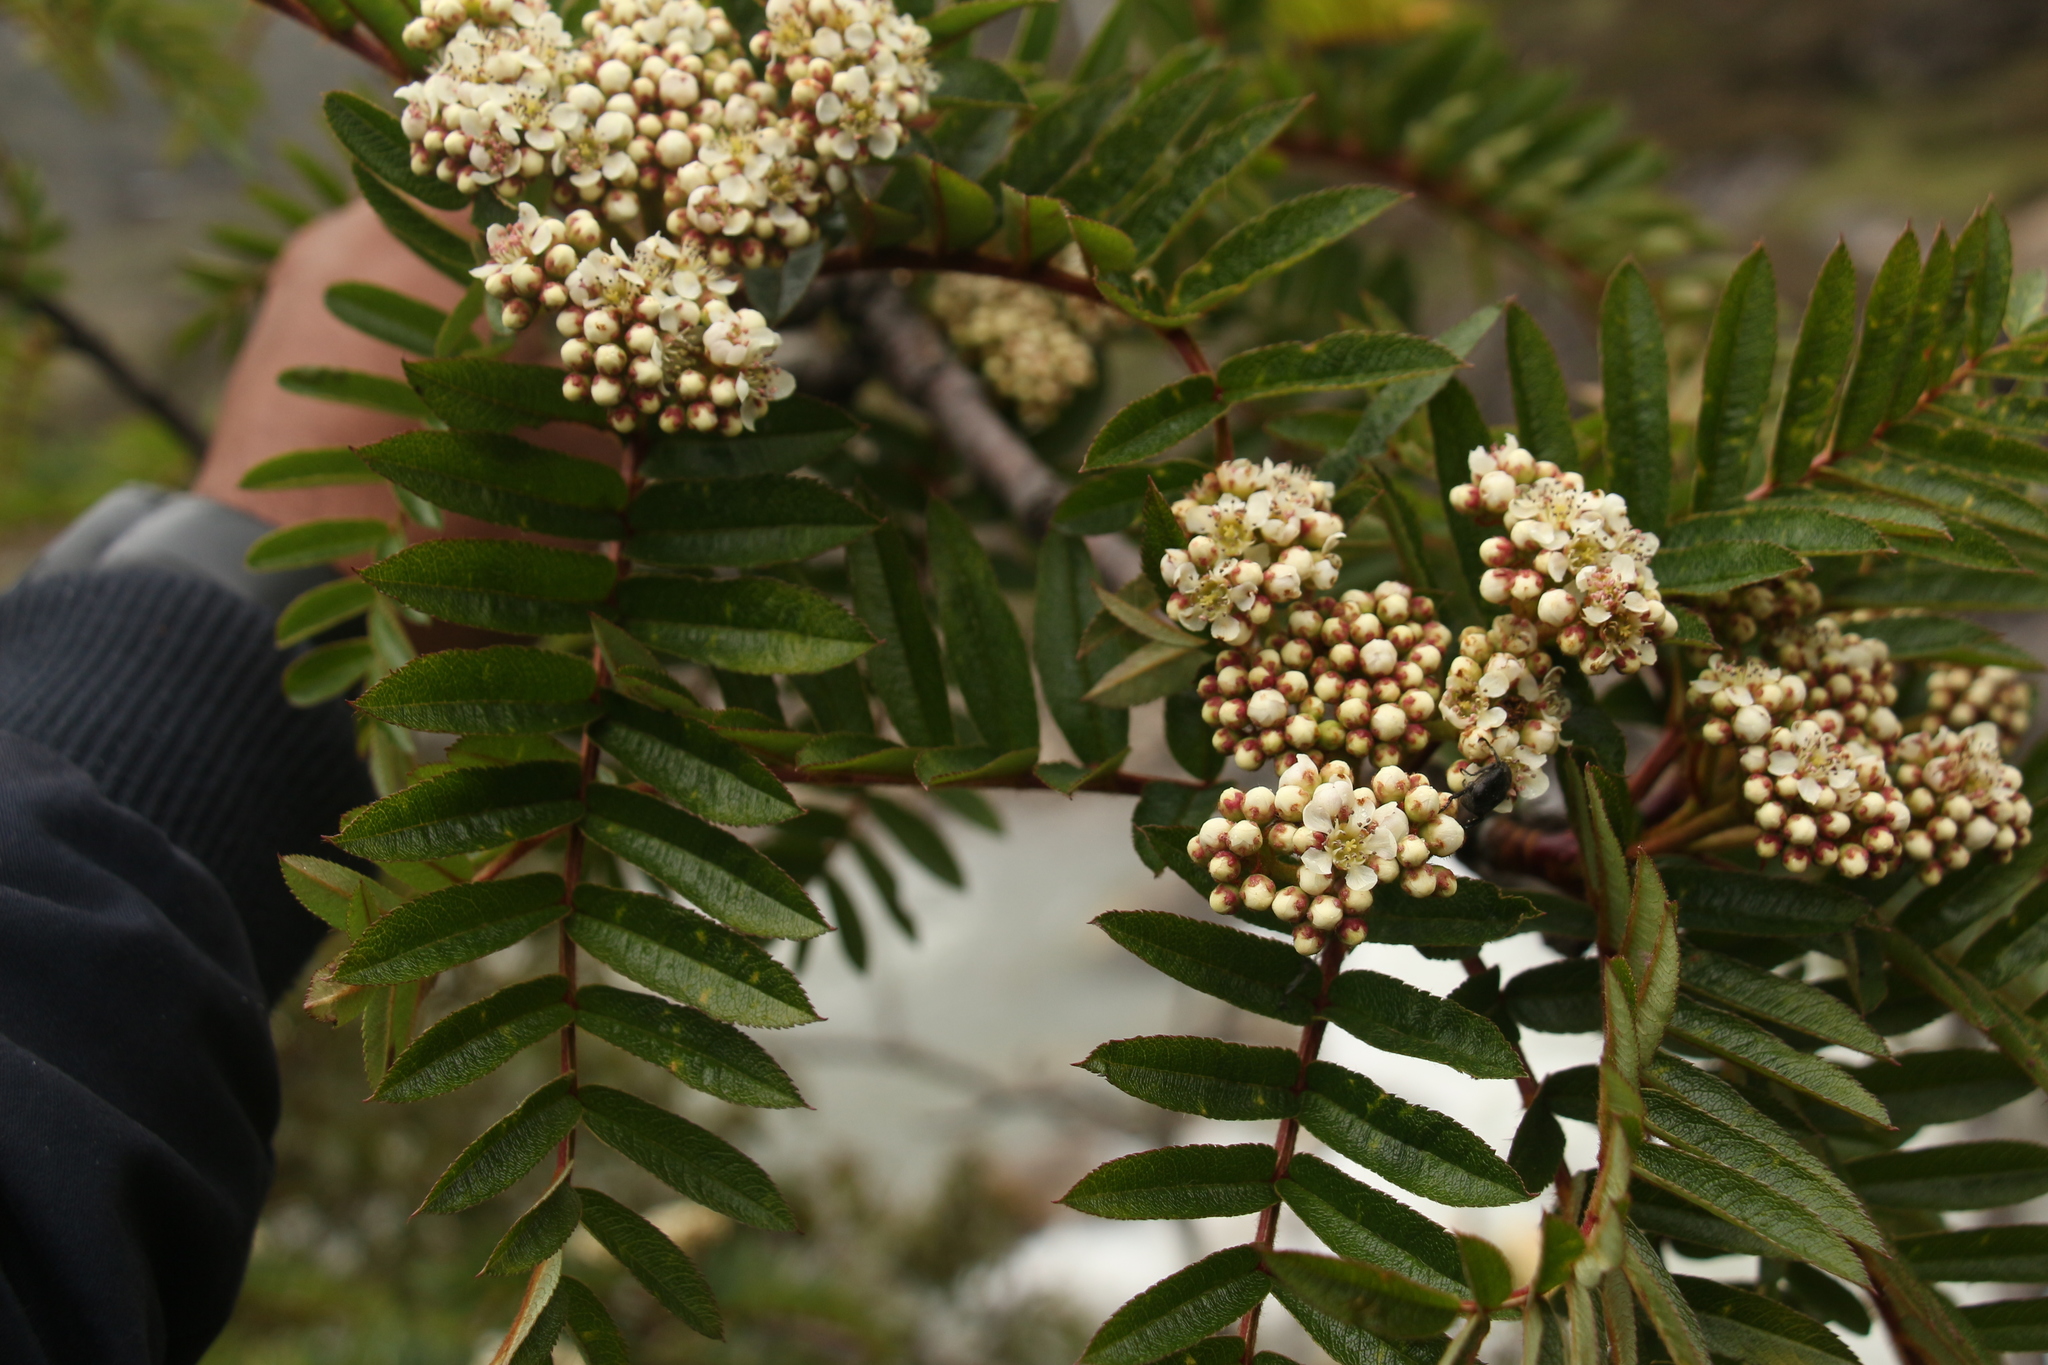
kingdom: Plantae
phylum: Tracheophyta
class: Magnoliopsida
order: Rosales
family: Rosaceae
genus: Sorbus
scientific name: Sorbus microphylla
